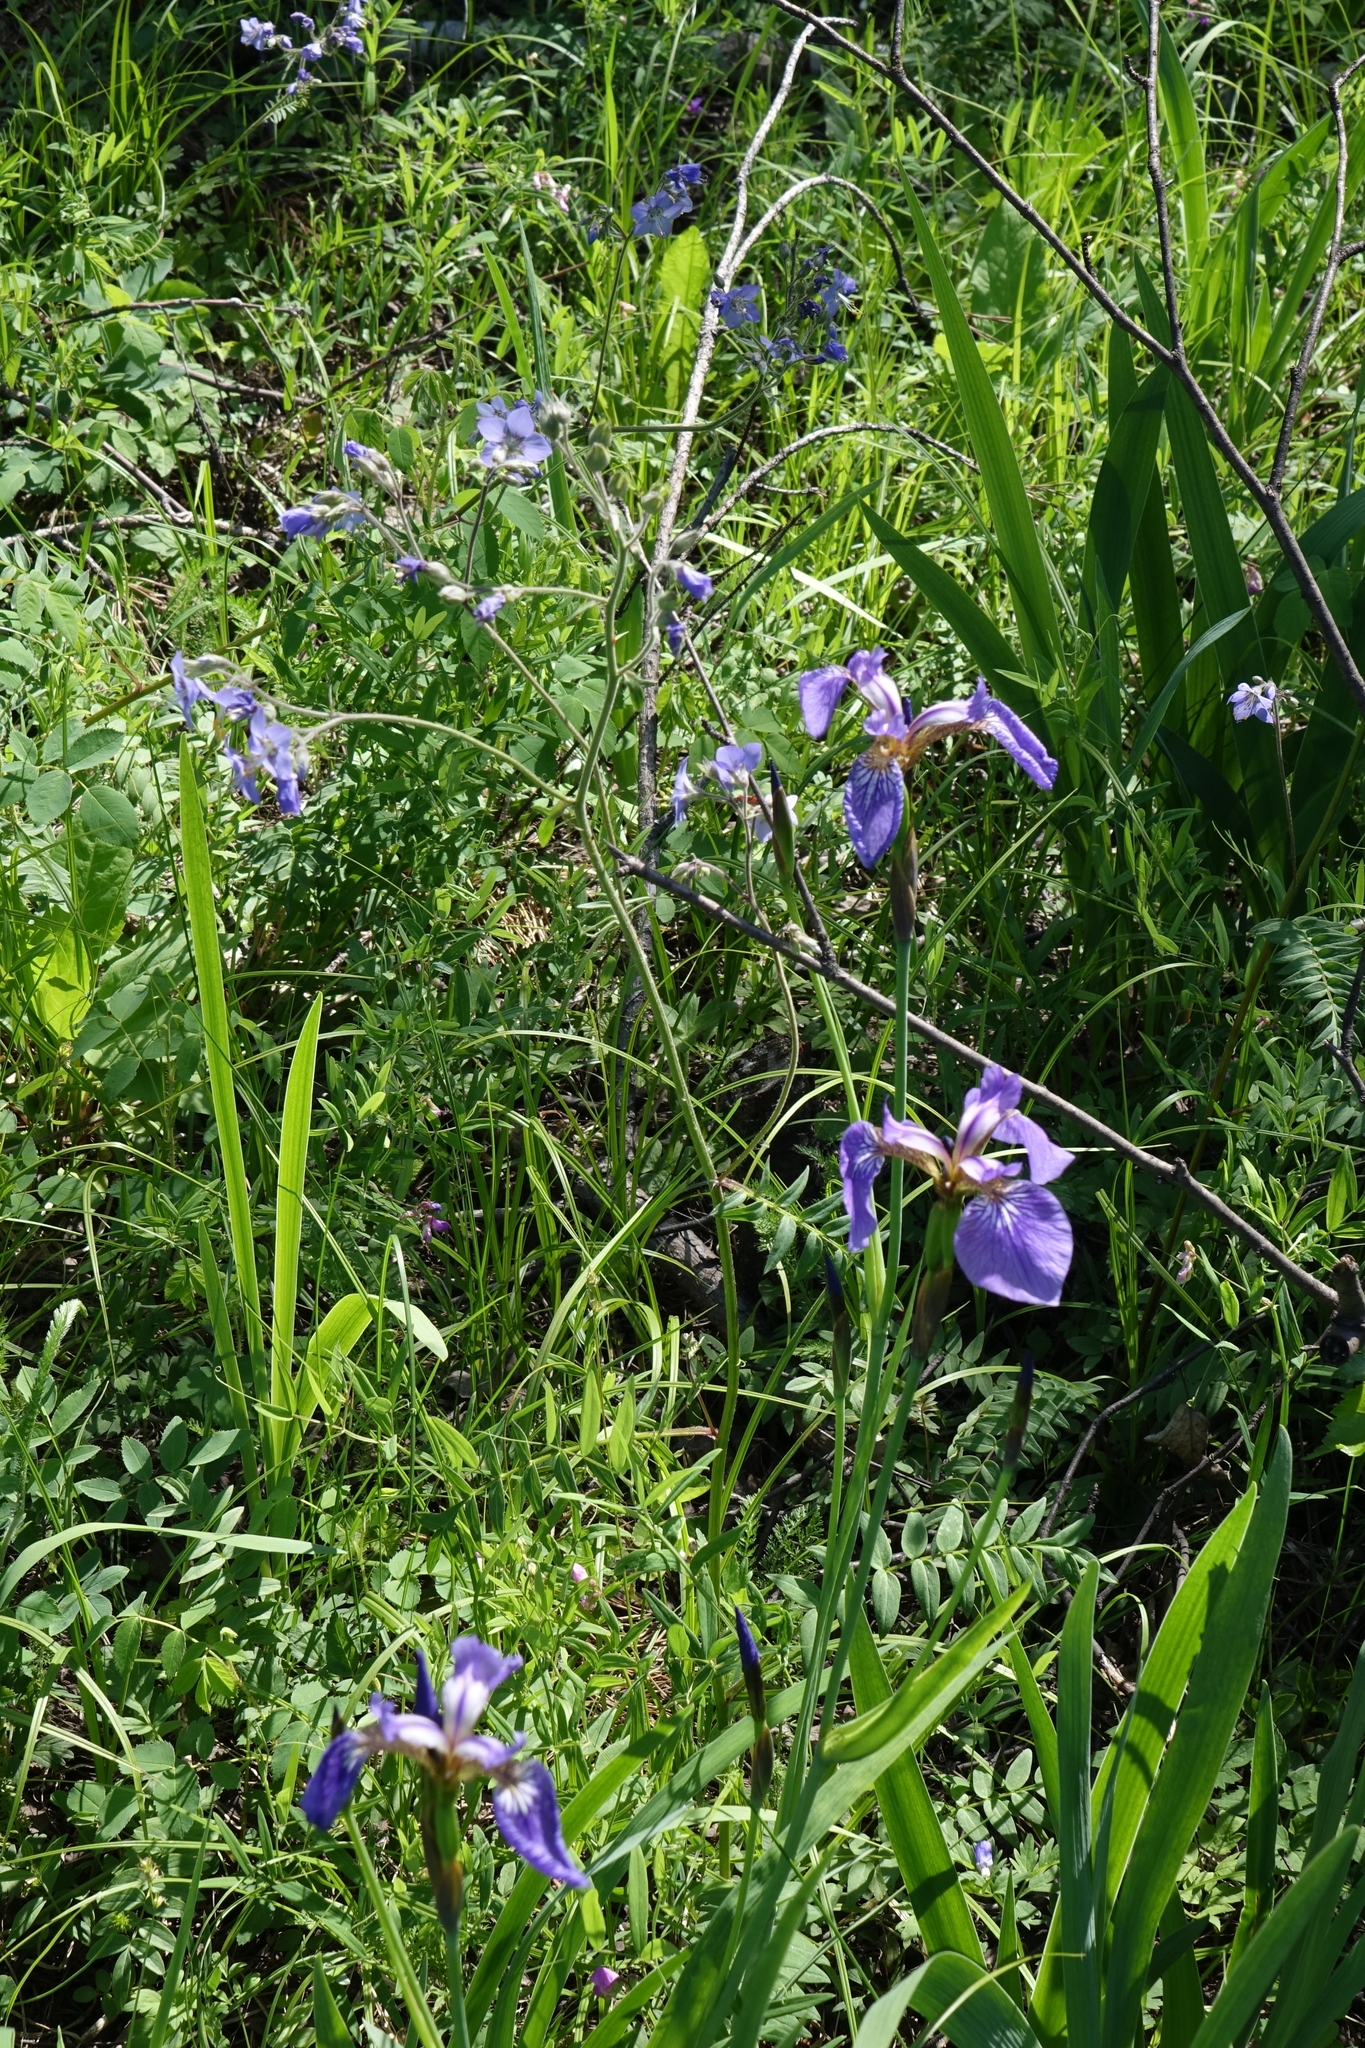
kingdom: Plantae
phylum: Tracheophyta
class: Liliopsida
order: Asparagales
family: Iridaceae
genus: Iris
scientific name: Iris setosa
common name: Arctic blue flag
